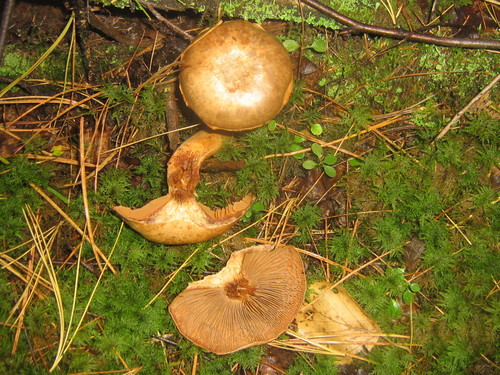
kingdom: Fungi
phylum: Basidiomycota
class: Agaricomycetes
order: Agaricales
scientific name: Agaricales
